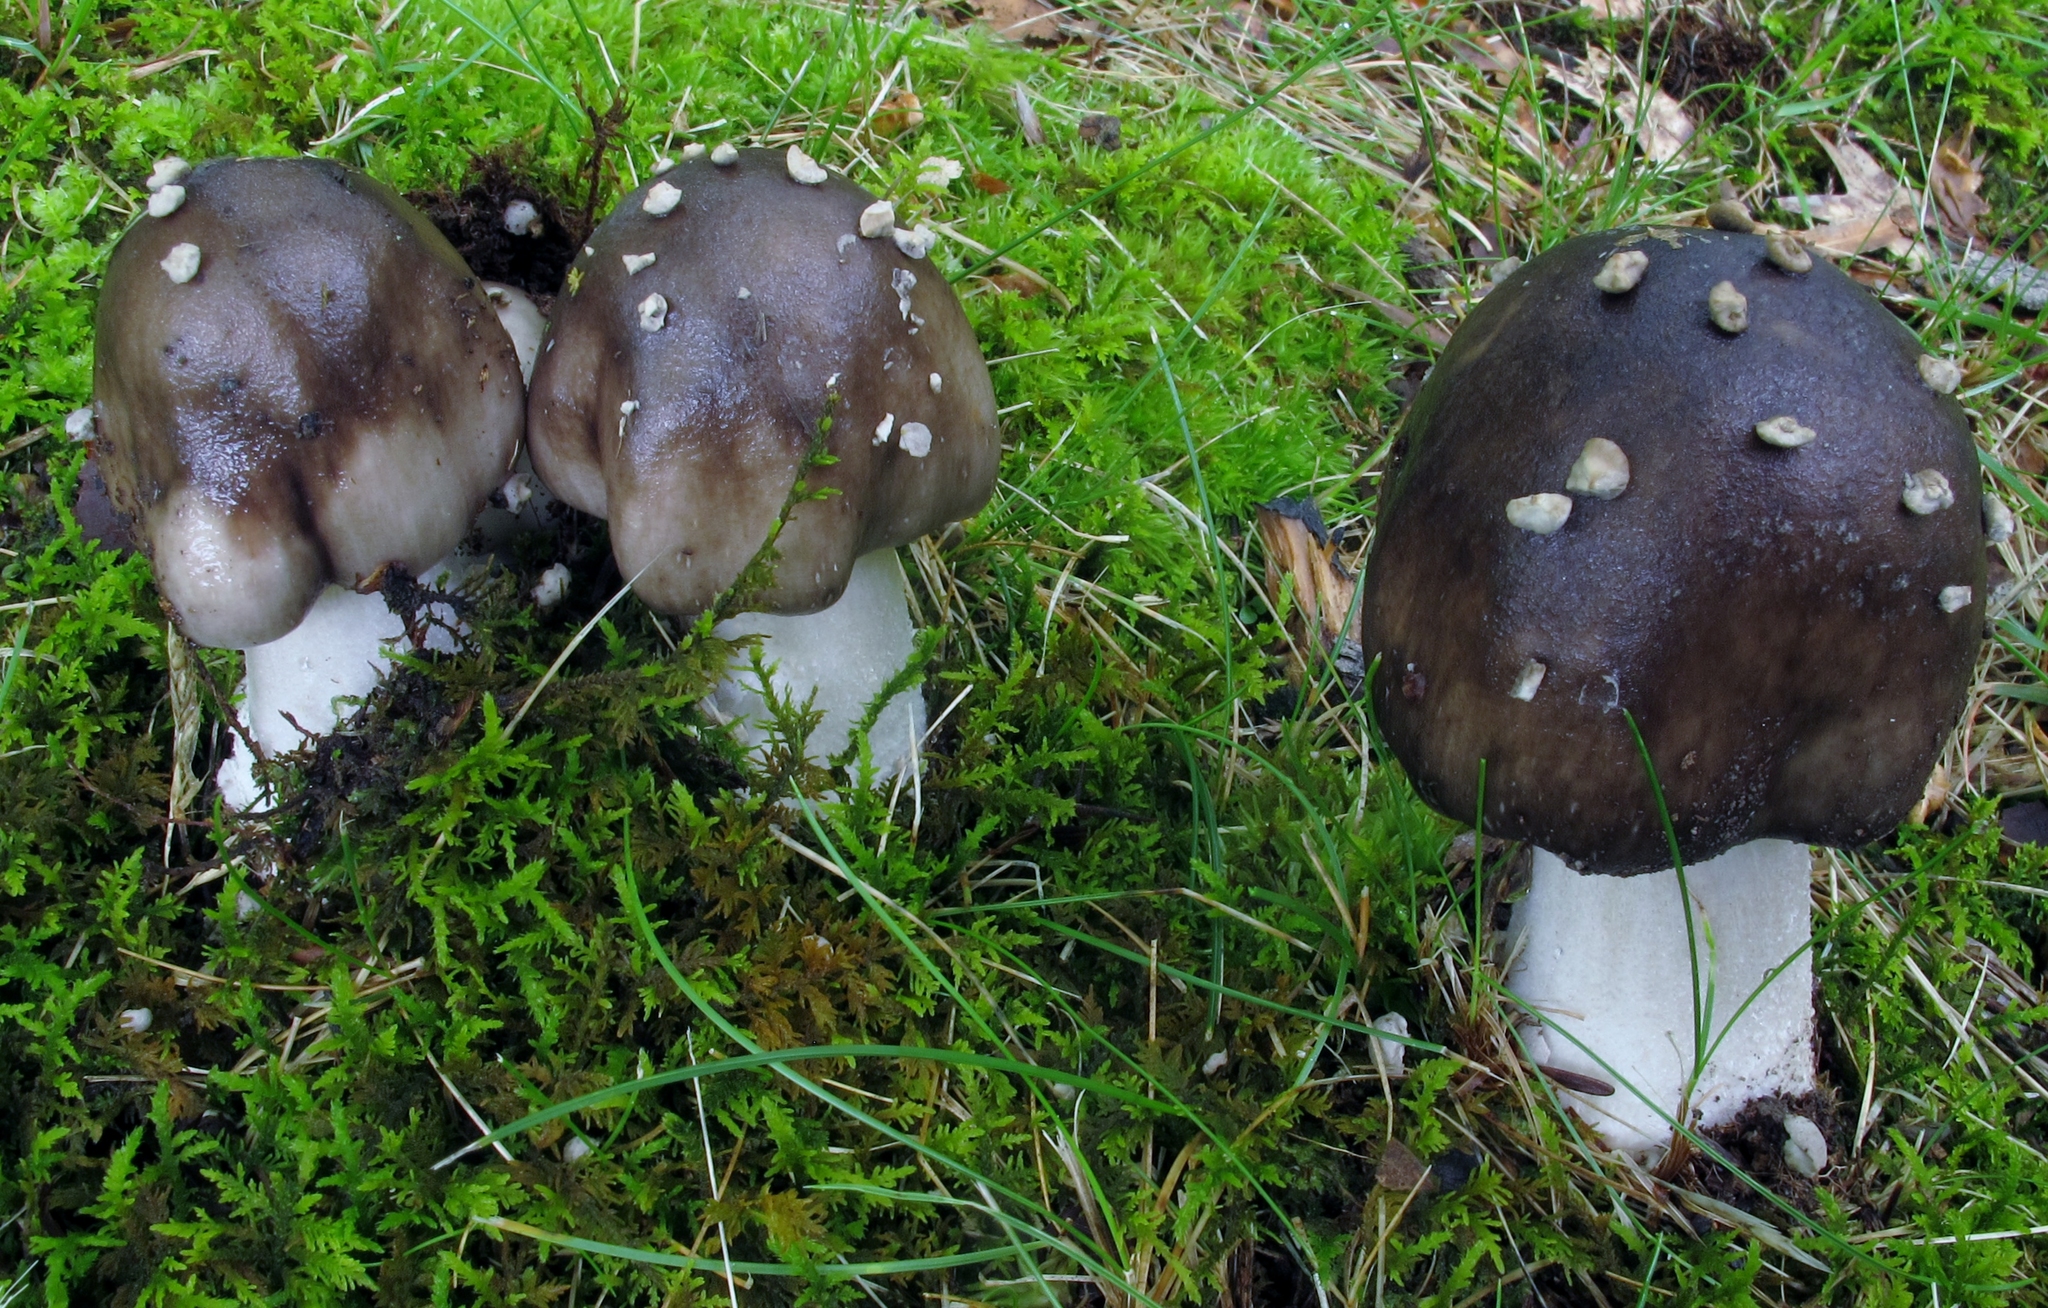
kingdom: Fungi
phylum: Basidiomycota
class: Agaricomycetes
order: Agaricales
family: Amanitaceae
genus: Amanita
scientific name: Amanita submaculata
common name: Ball gown amanita
